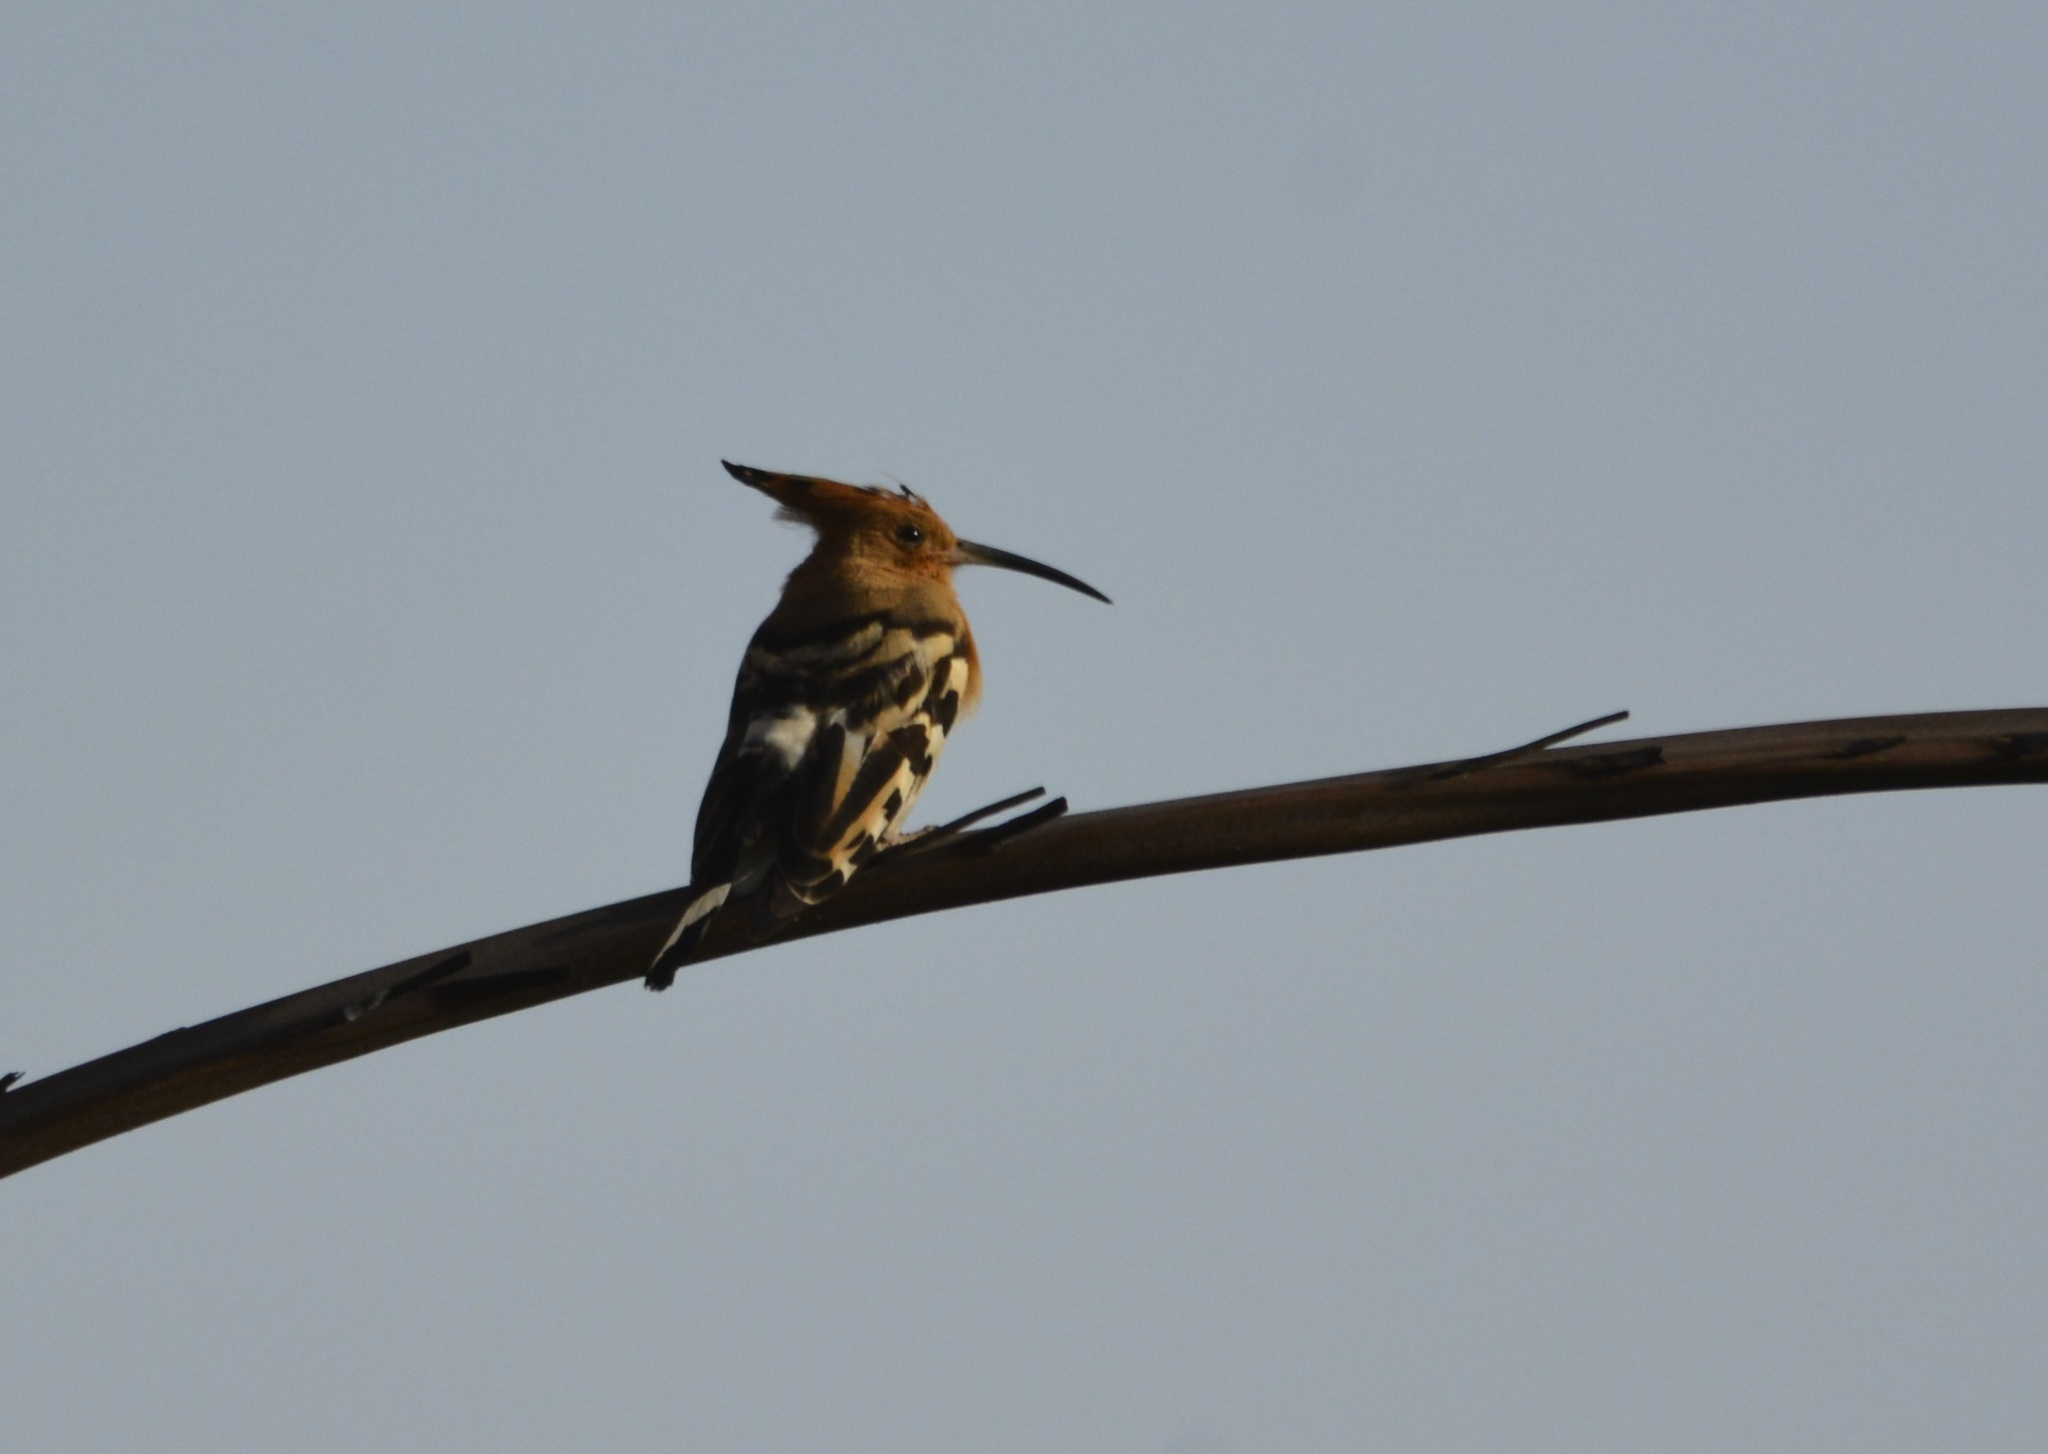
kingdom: Animalia
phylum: Chordata
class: Aves
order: Bucerotiformes
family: Upupidae
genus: Upupa
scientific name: Upupa epops
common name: Eurasian hoopoe
